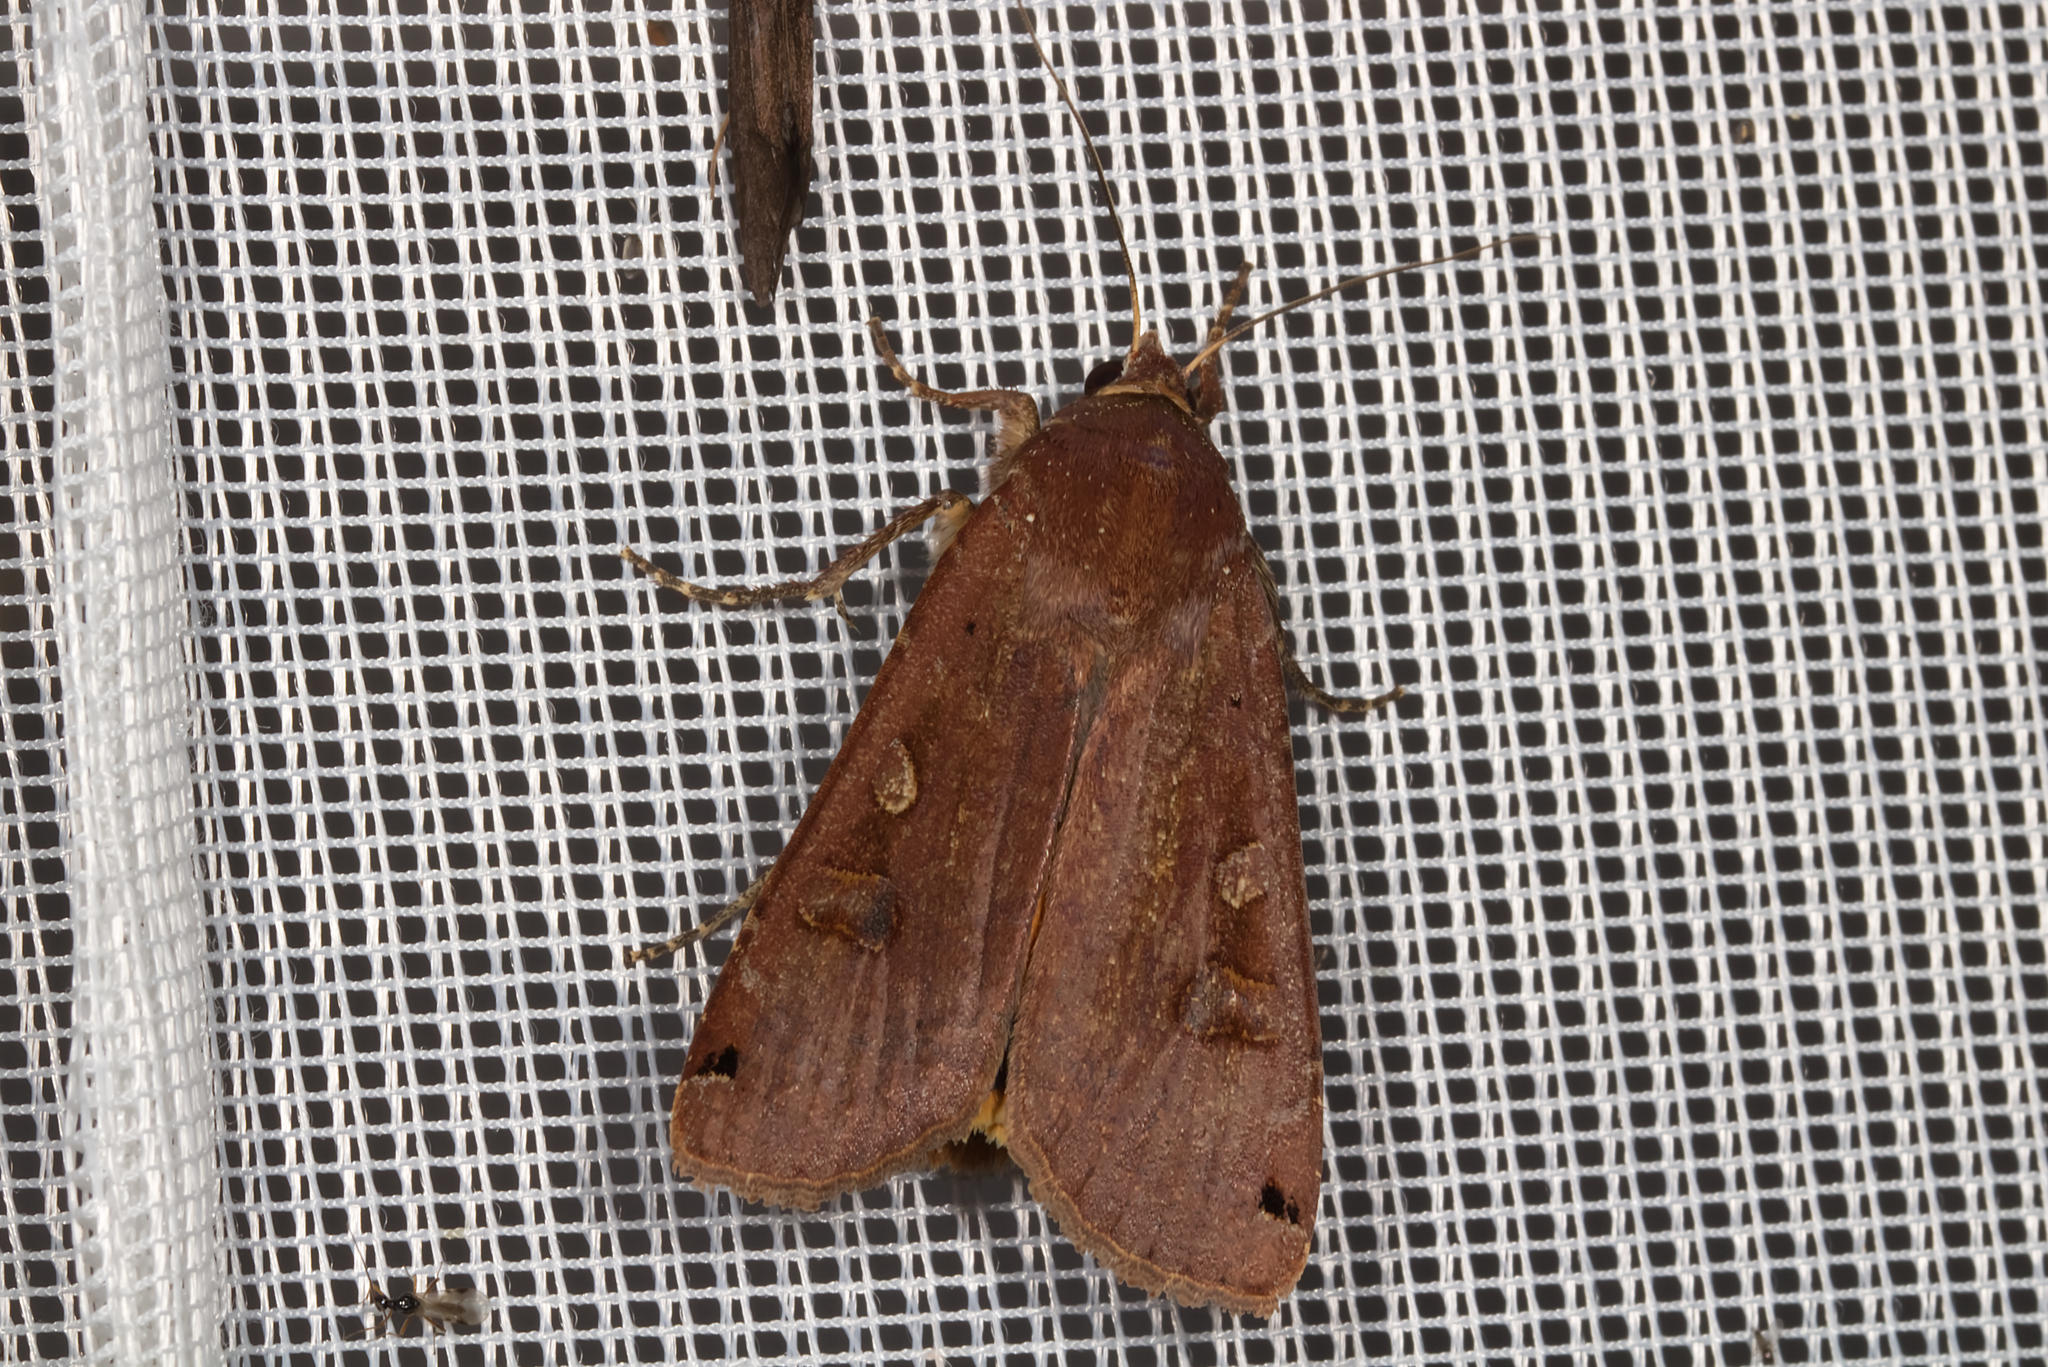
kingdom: Animalia
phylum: Arthropoda
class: Insecta
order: Lepidoptera
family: Noctuidae
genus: Noctua
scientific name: Noctua pronuba
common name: Large yellow underwing
